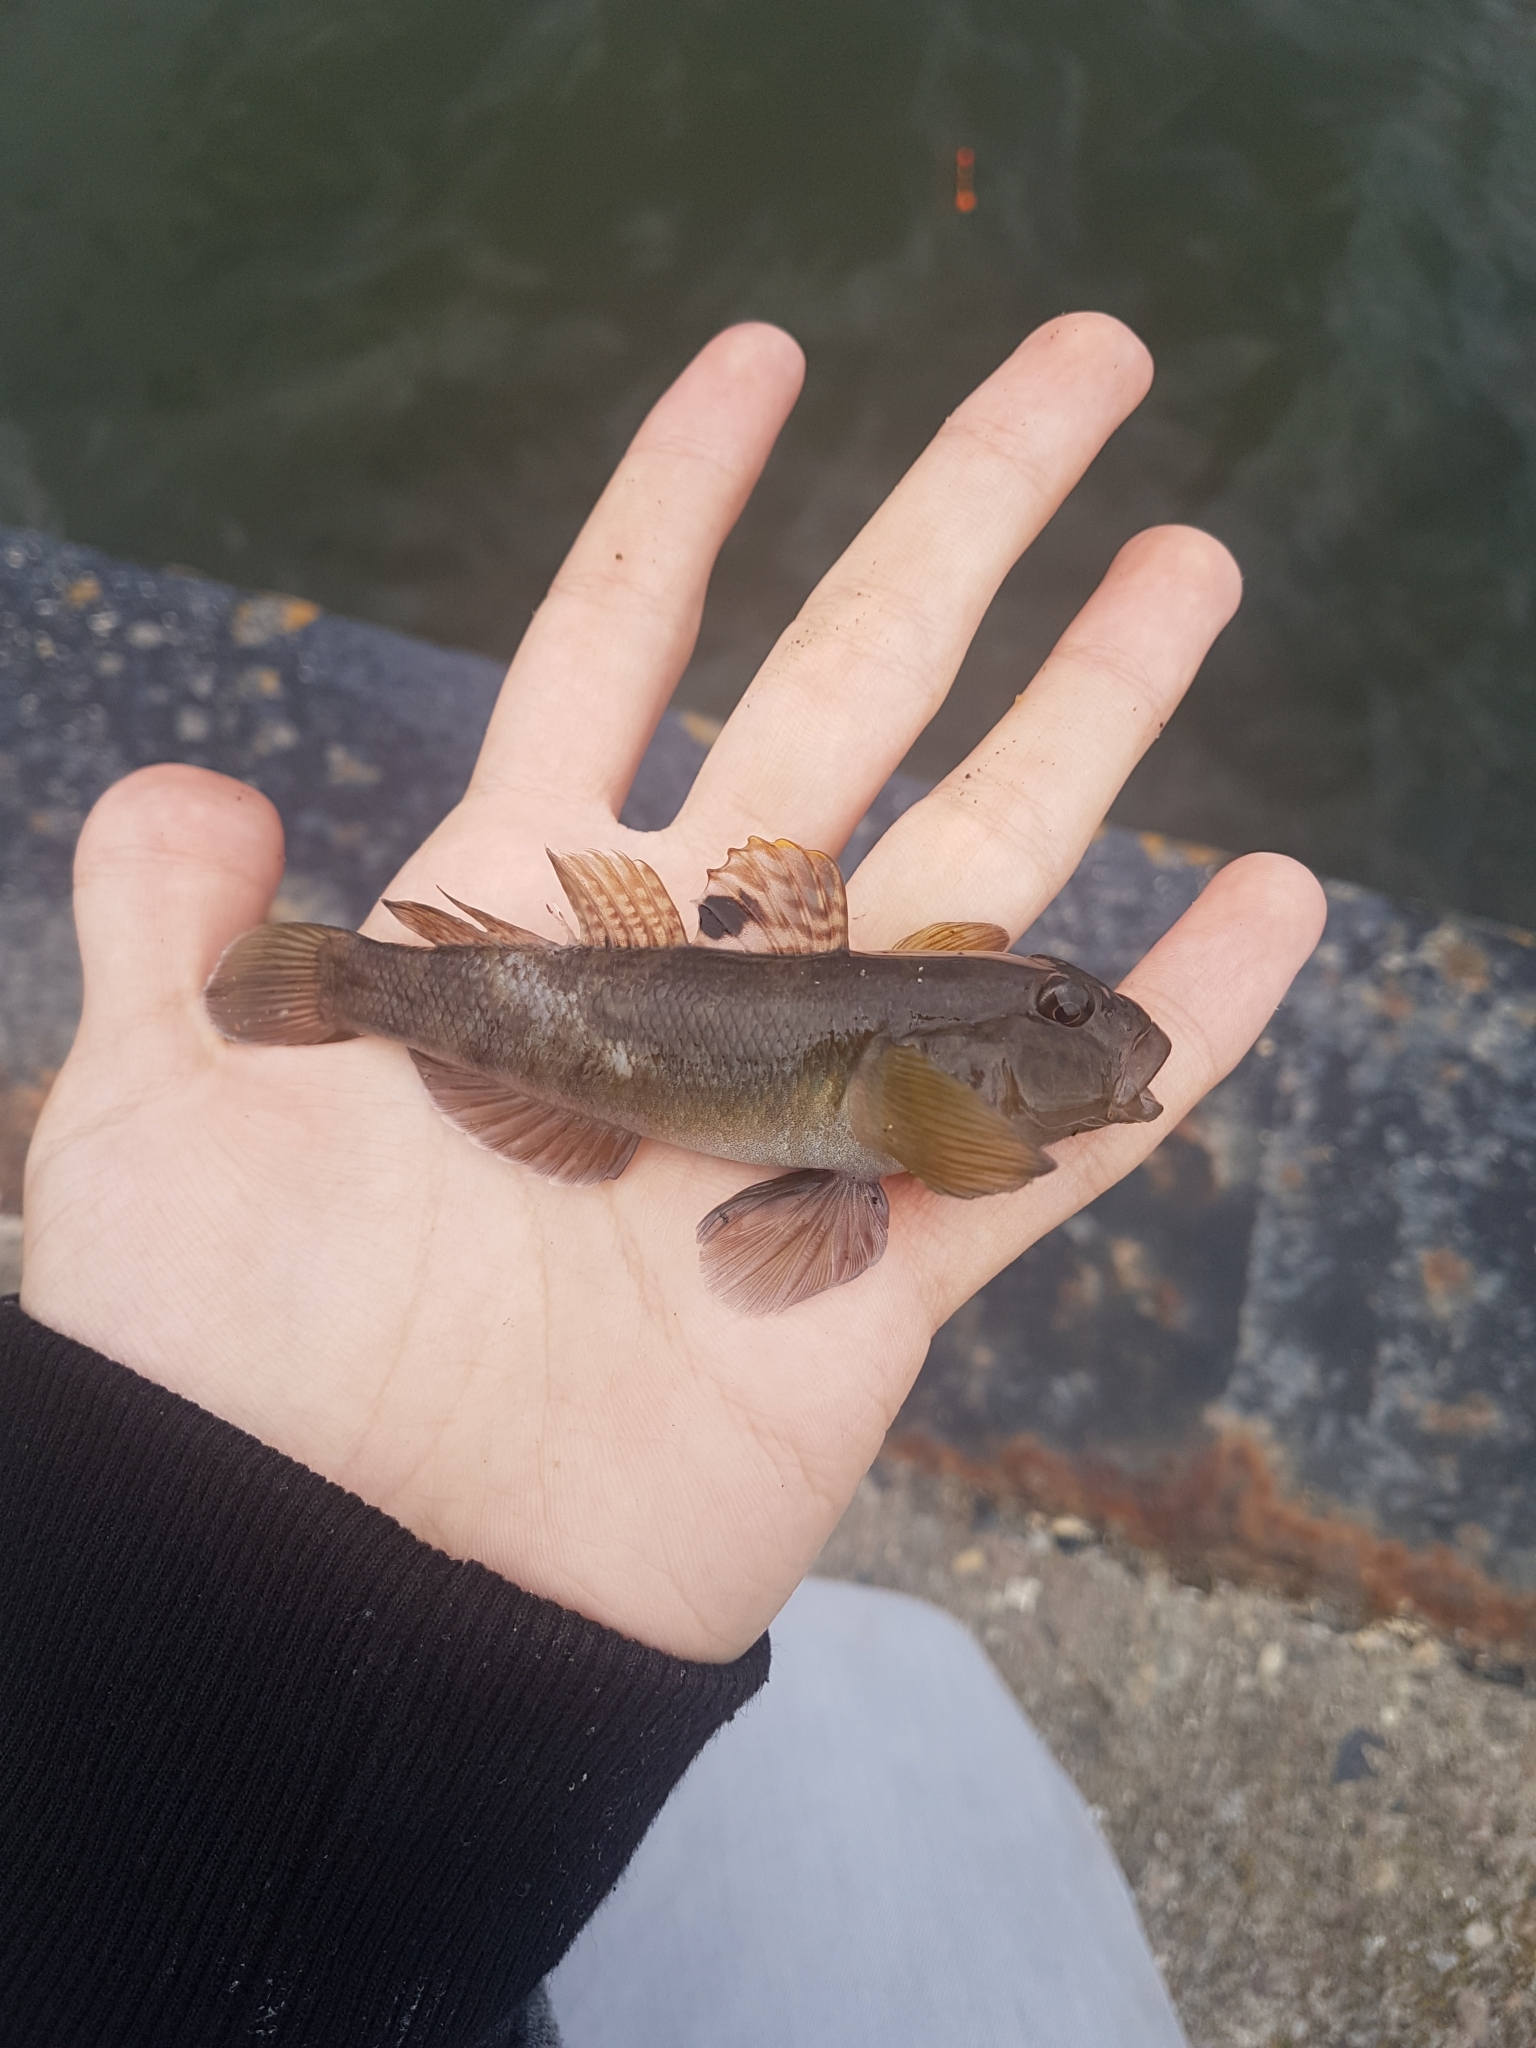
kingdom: Animalia
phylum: Chordata
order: Perciformes
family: Gobiidae
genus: Neogobius
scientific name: Neogobius melanostomus
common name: Round goby
